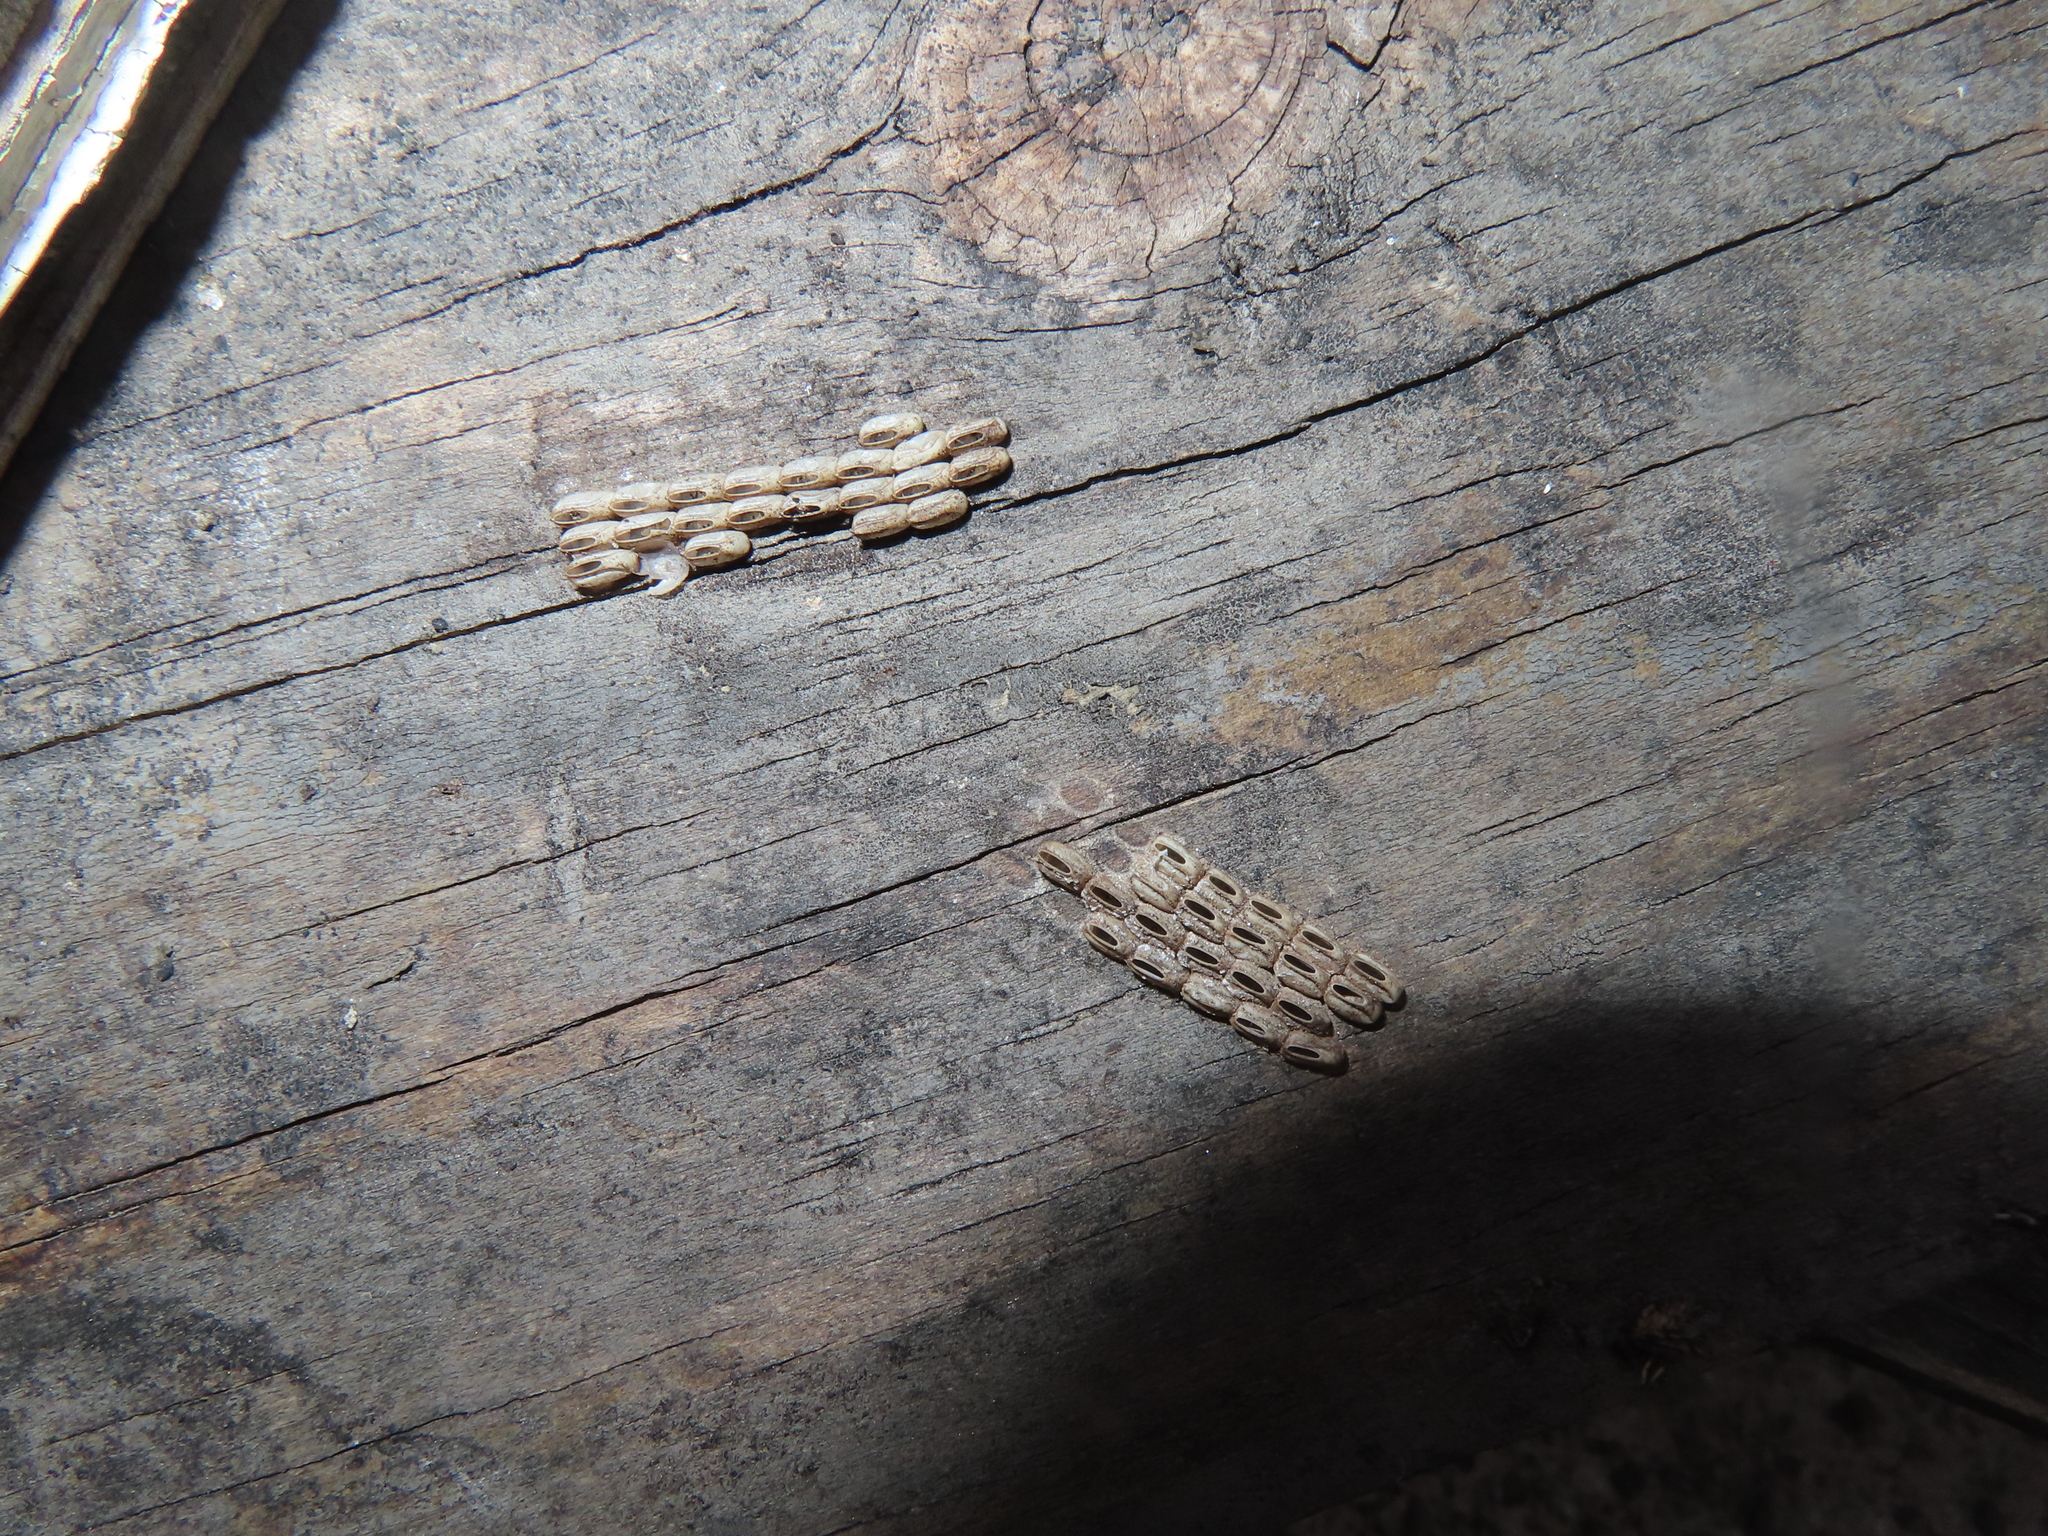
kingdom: Animalia
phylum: Arthropoda
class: Insecta
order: Hemiptera
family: Fulgoridae
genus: Lycorma
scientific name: Lycorma delicatula
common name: Spotted lanternfly
